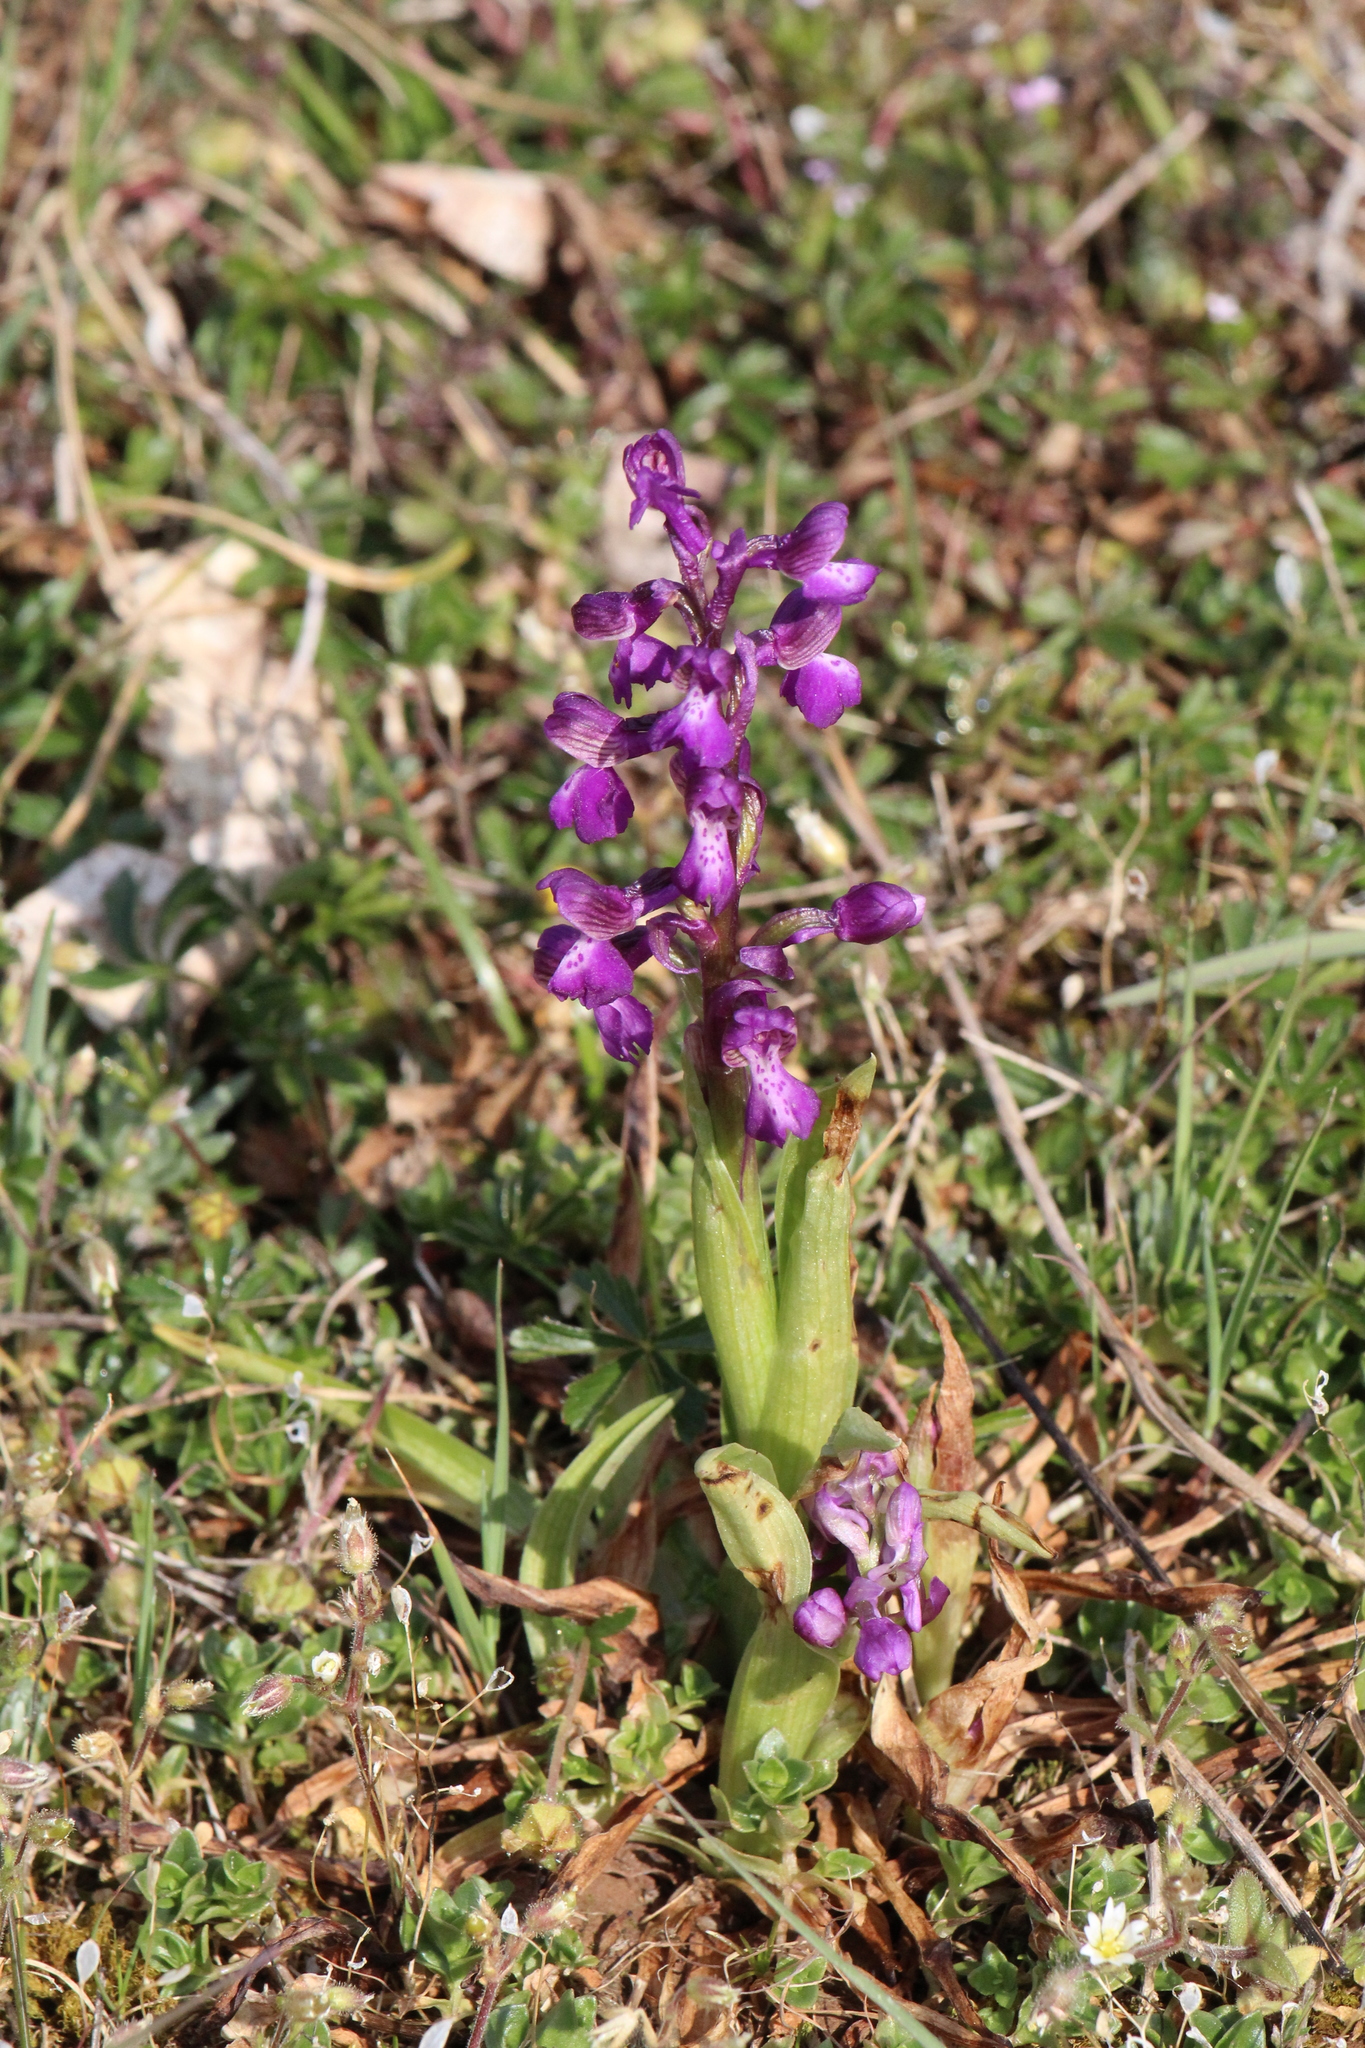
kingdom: Plantae
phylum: Tracheophyta
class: Liliopsida
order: Asparagales
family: Orchidaceae
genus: Anacamptis
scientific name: Anacamptis morio
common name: Green-winged orchid
